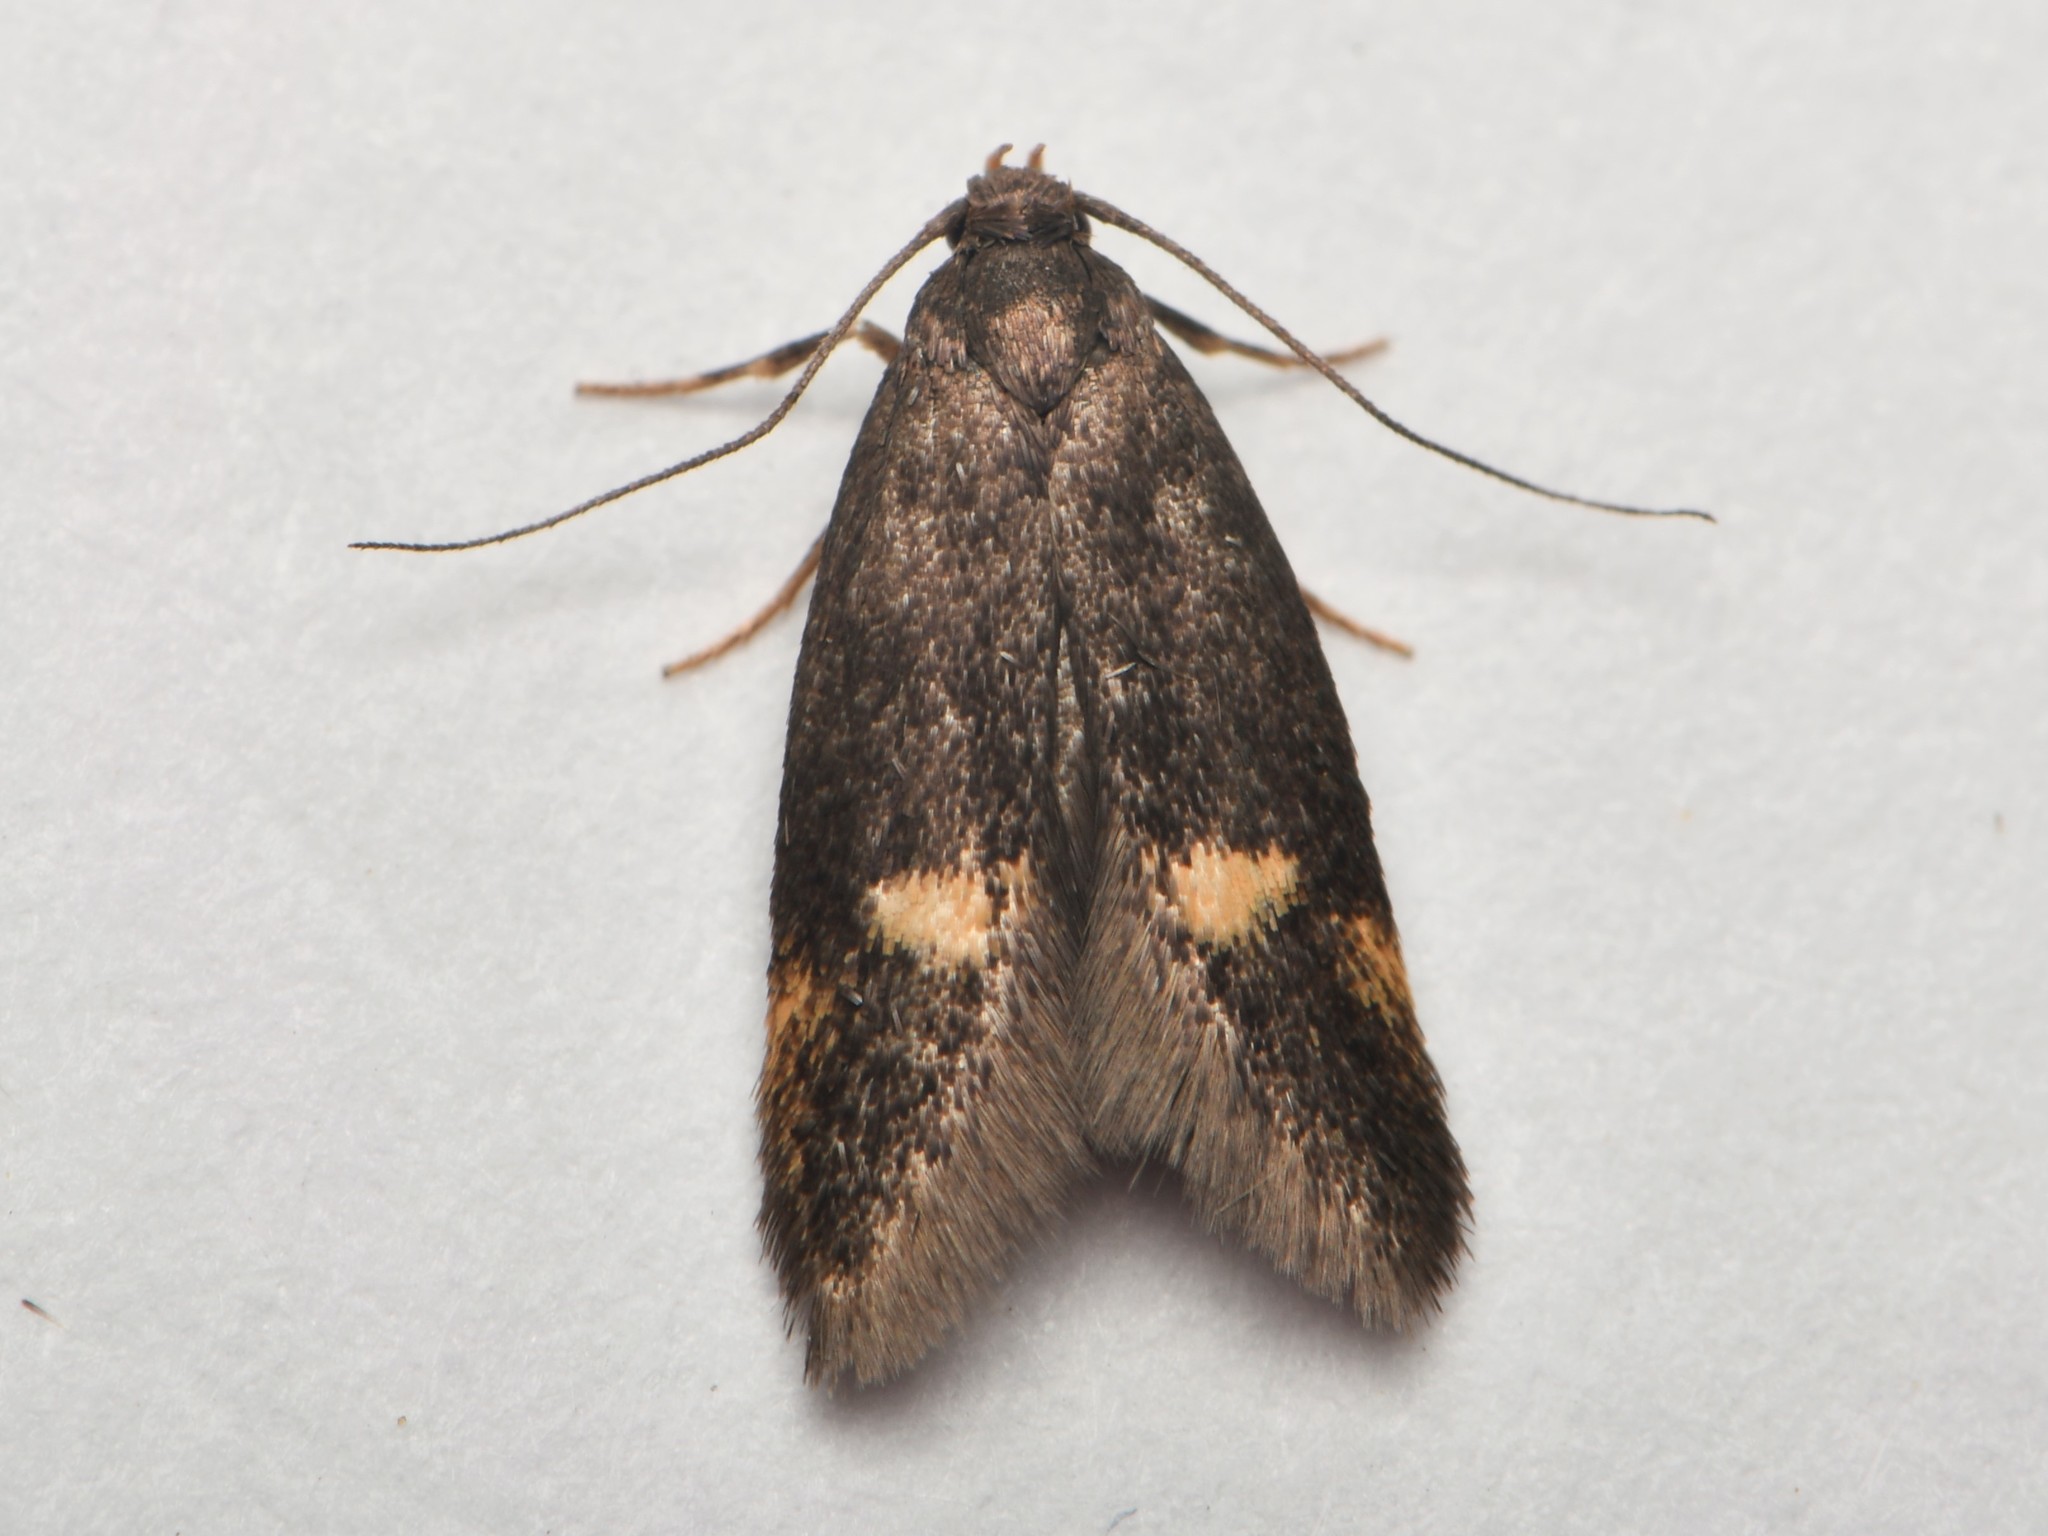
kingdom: Animalia
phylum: Arthropoda
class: Insecta
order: Lepidoptera
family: Oecophoridae
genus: Borkhausenia
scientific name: Borkhausenia minutella
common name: Thatch tubic
